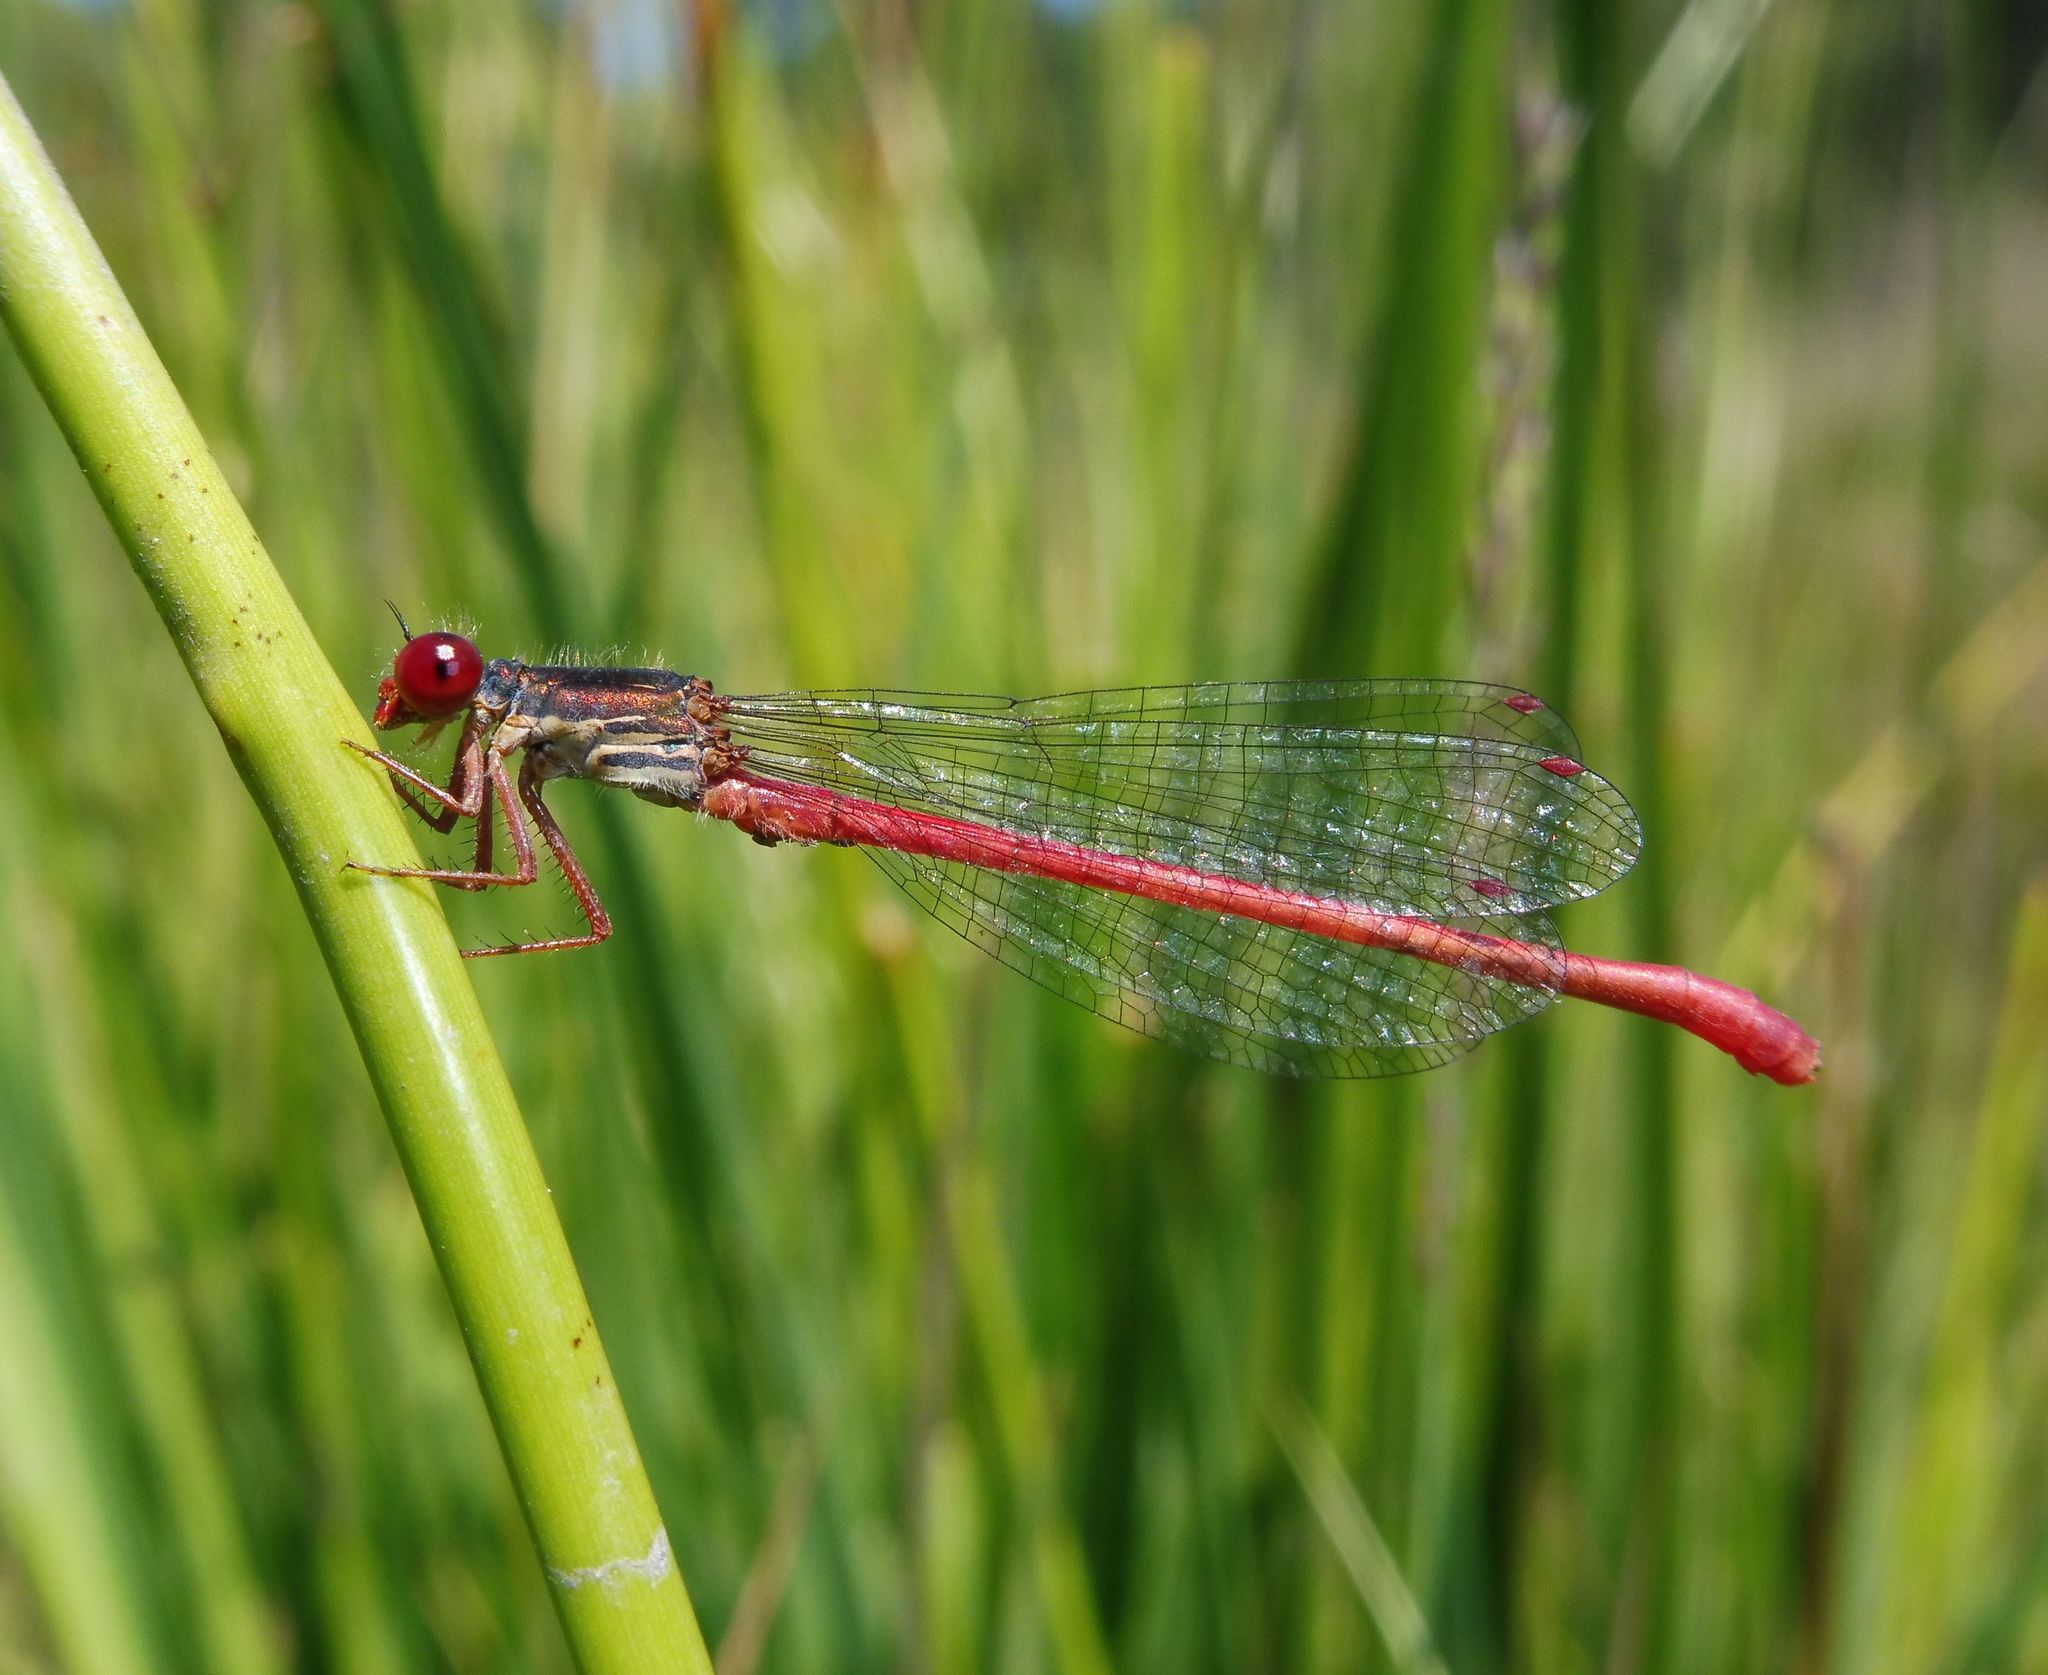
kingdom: Animalia
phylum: Arthropoda
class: Insecta
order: Odonata
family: Coenagrionidae
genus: Ceriagrion
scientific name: Ceriagrion tenellum
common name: Small red damselfly
